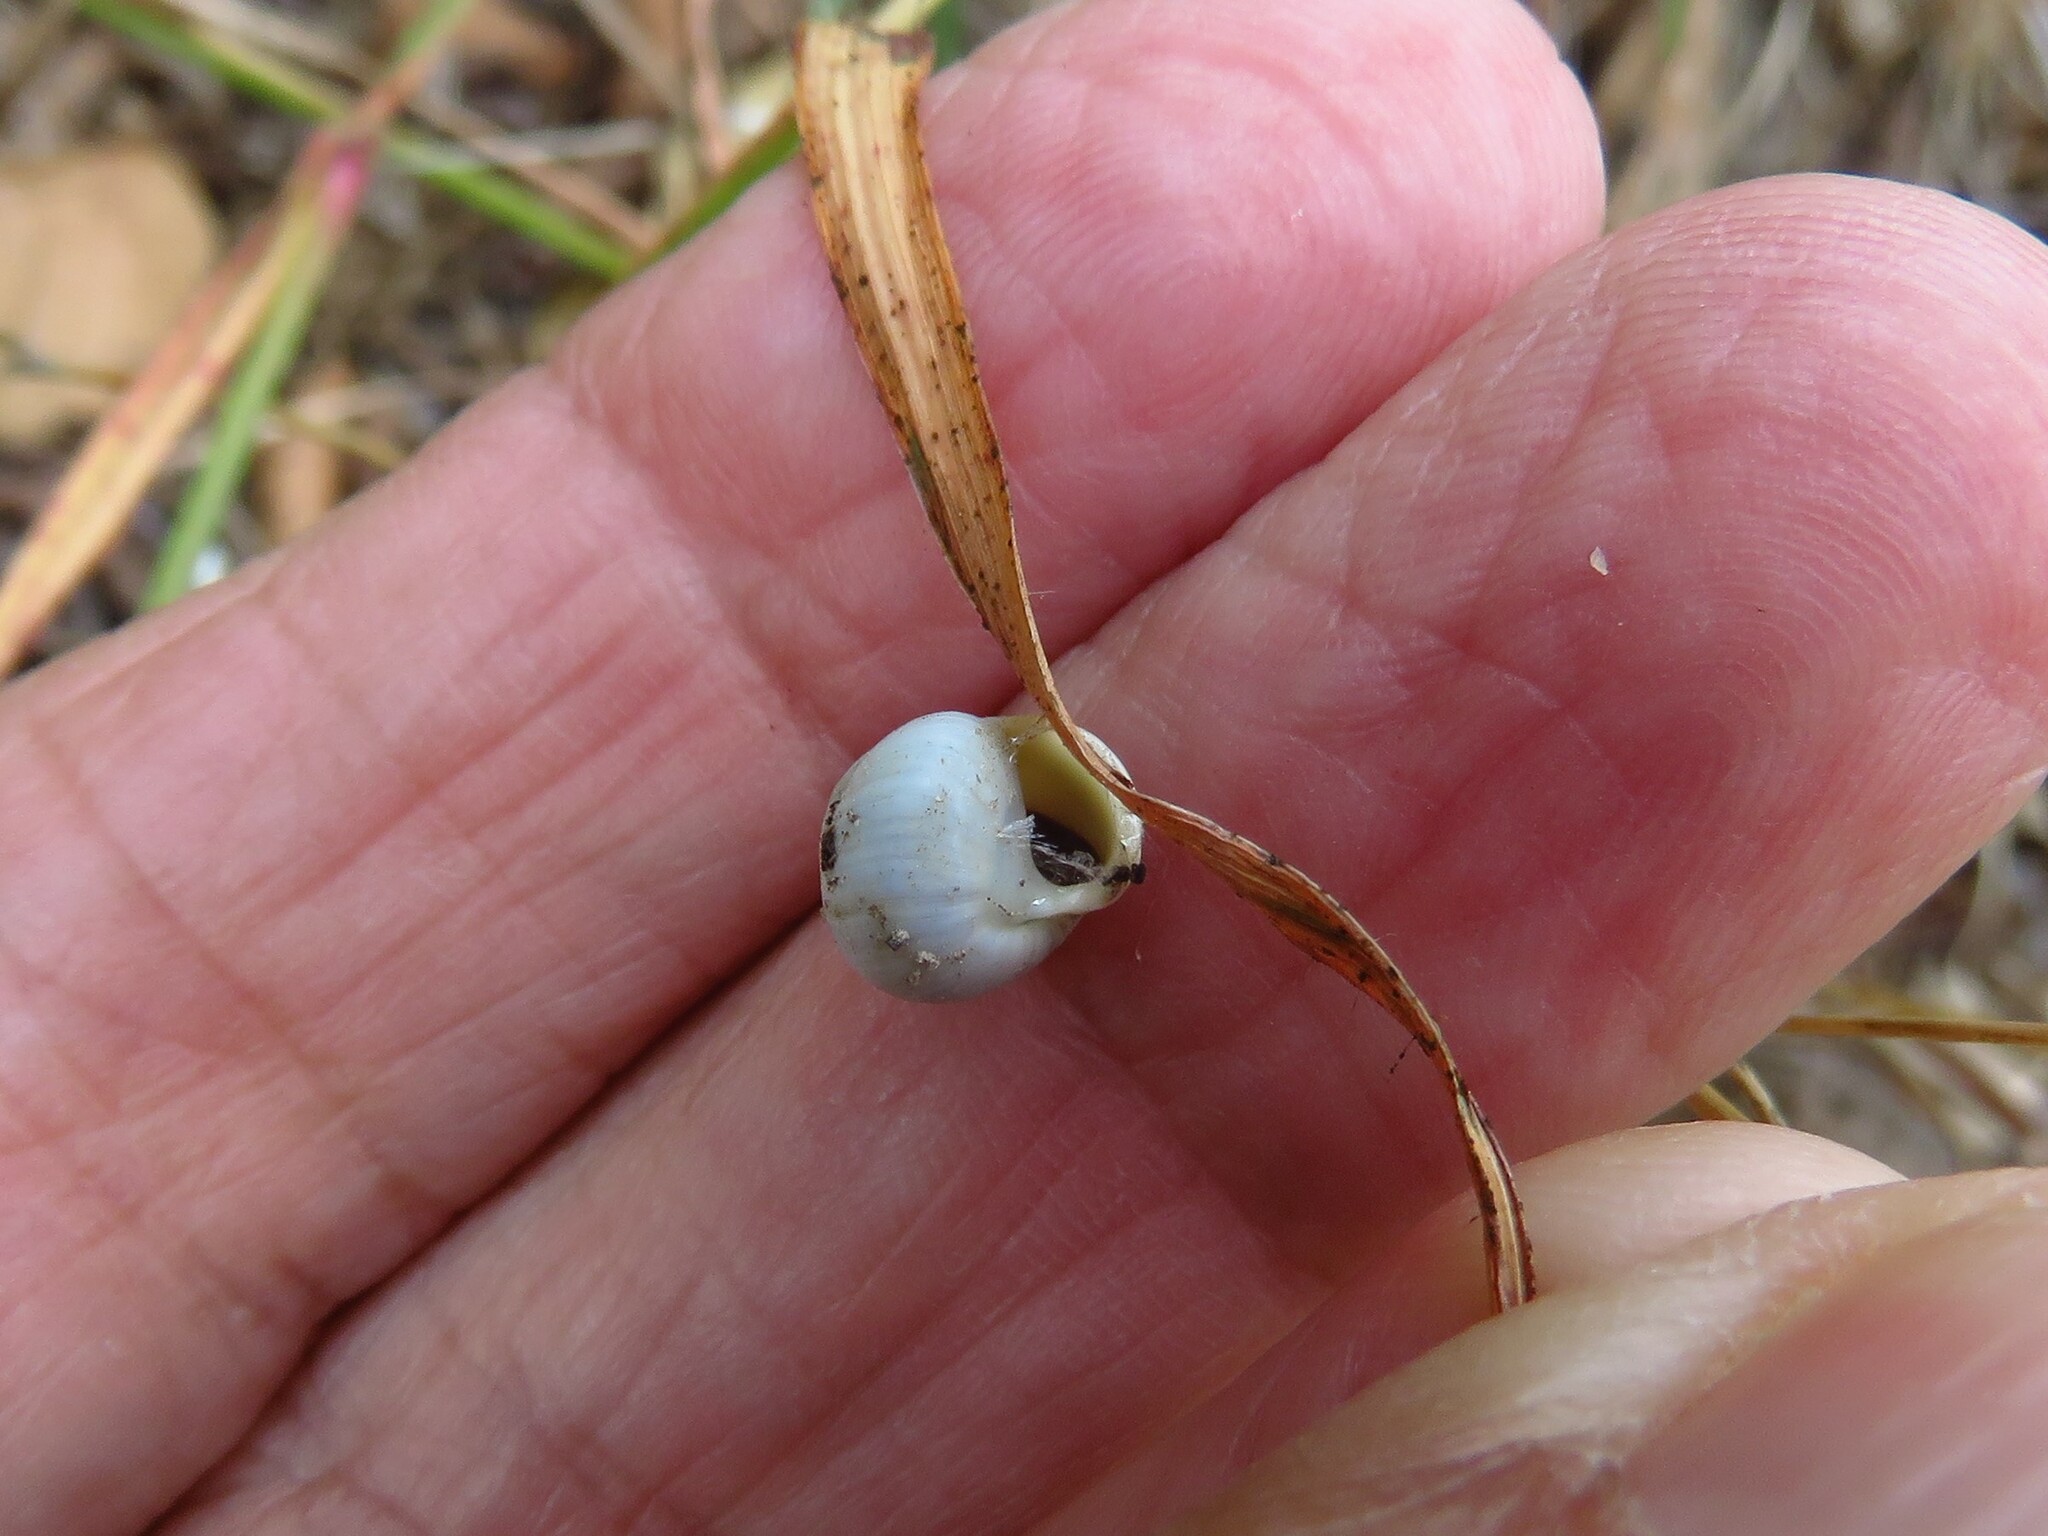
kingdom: Animalia
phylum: Mollusca
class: Gastropoda
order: Cycloneritida
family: Helicinidae
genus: Helicina
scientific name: Helicina orbiculata
